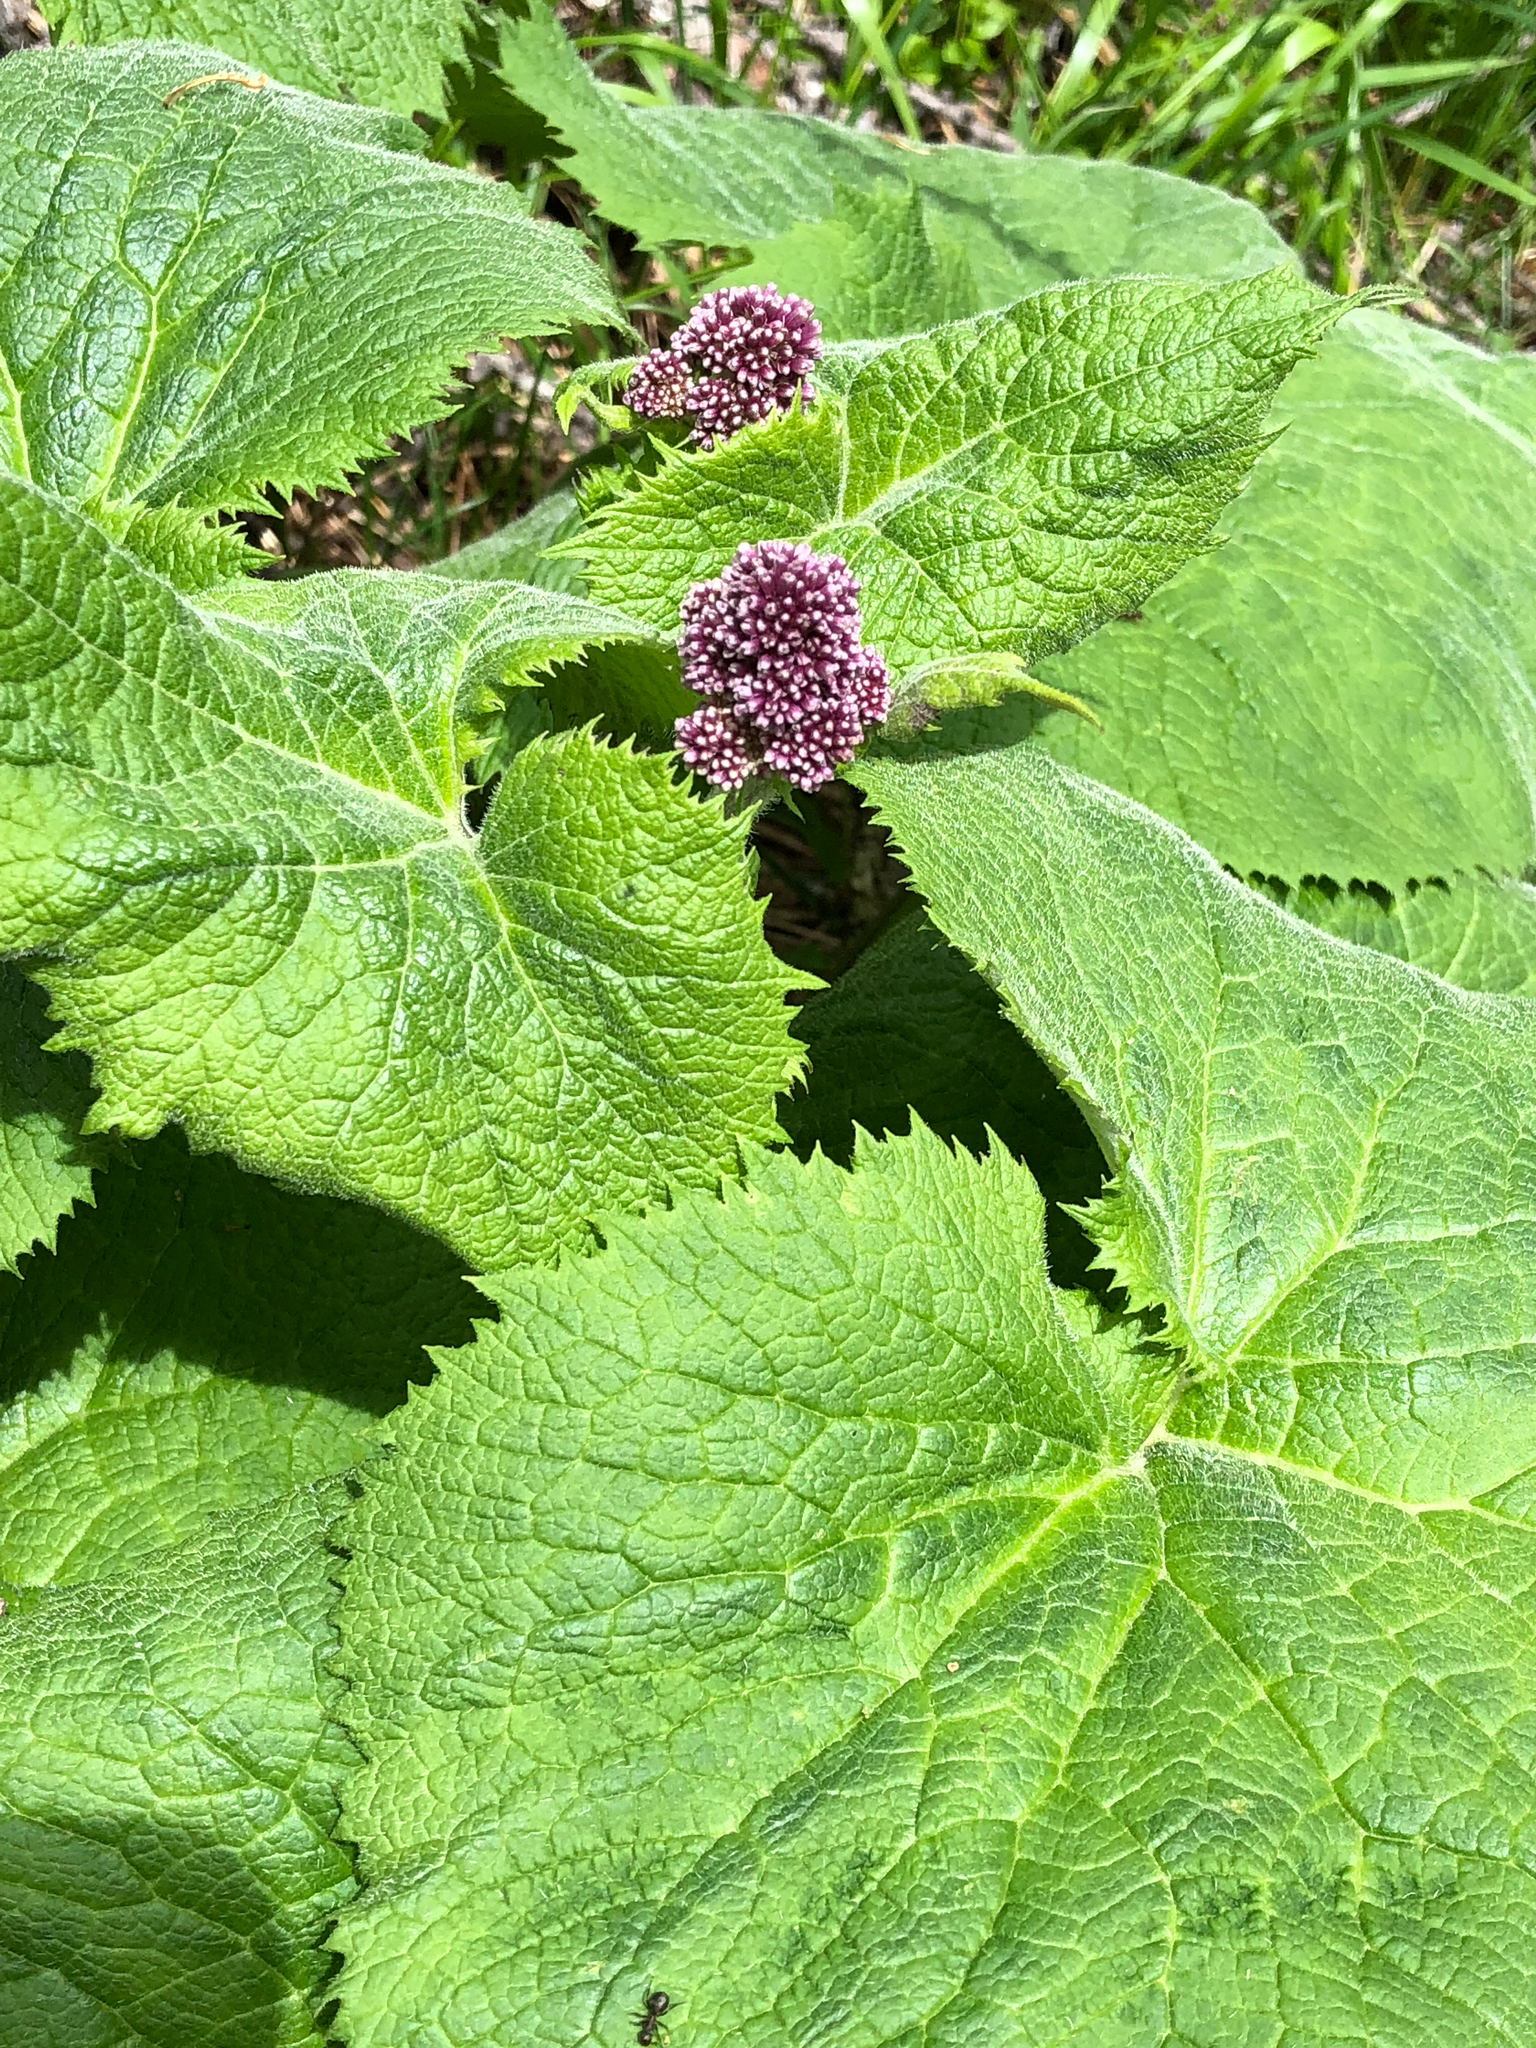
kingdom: Plantae
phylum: Tracheophyta
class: Magnoliopsida
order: Asterales
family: Asteraceae
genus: Adenostyles
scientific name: Adenostyles alliariae
